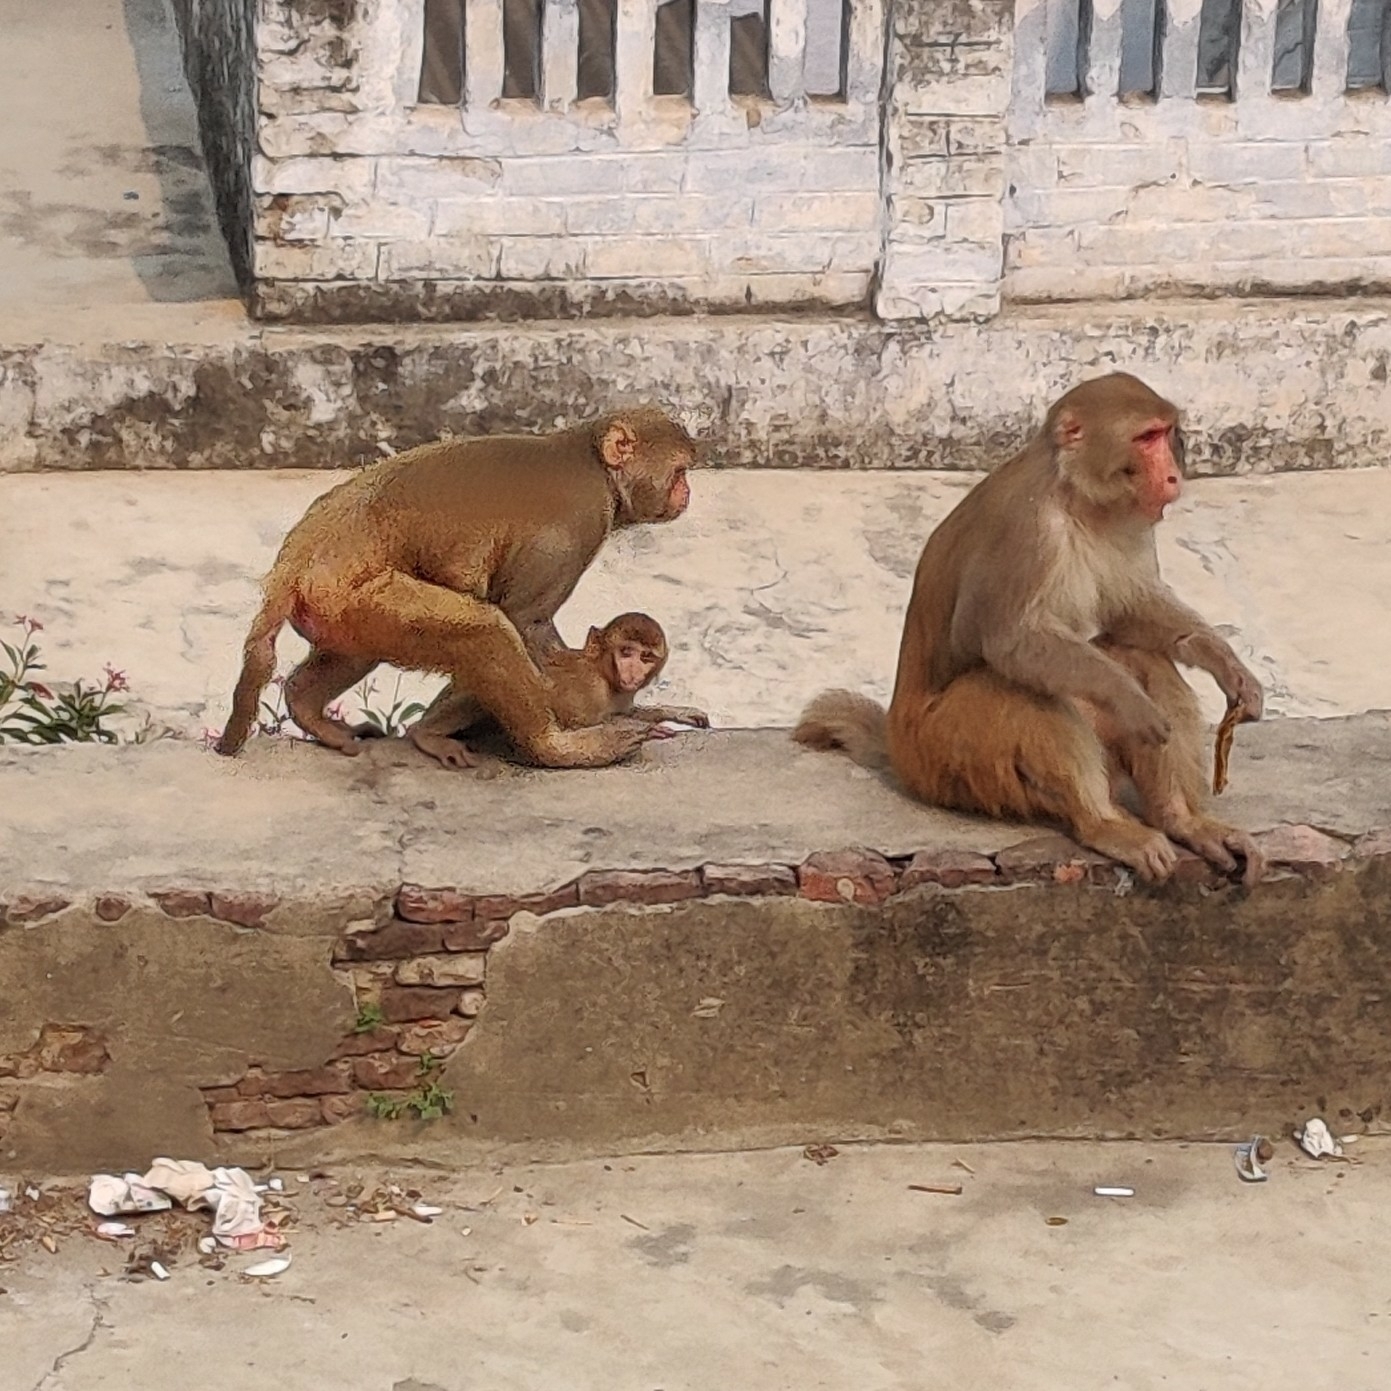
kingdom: Animalia
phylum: Chordata
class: Mammalia
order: Primates
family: Cercopithecidae
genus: Macaca
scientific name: Macaca mulatta
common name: Rhesus monkey
